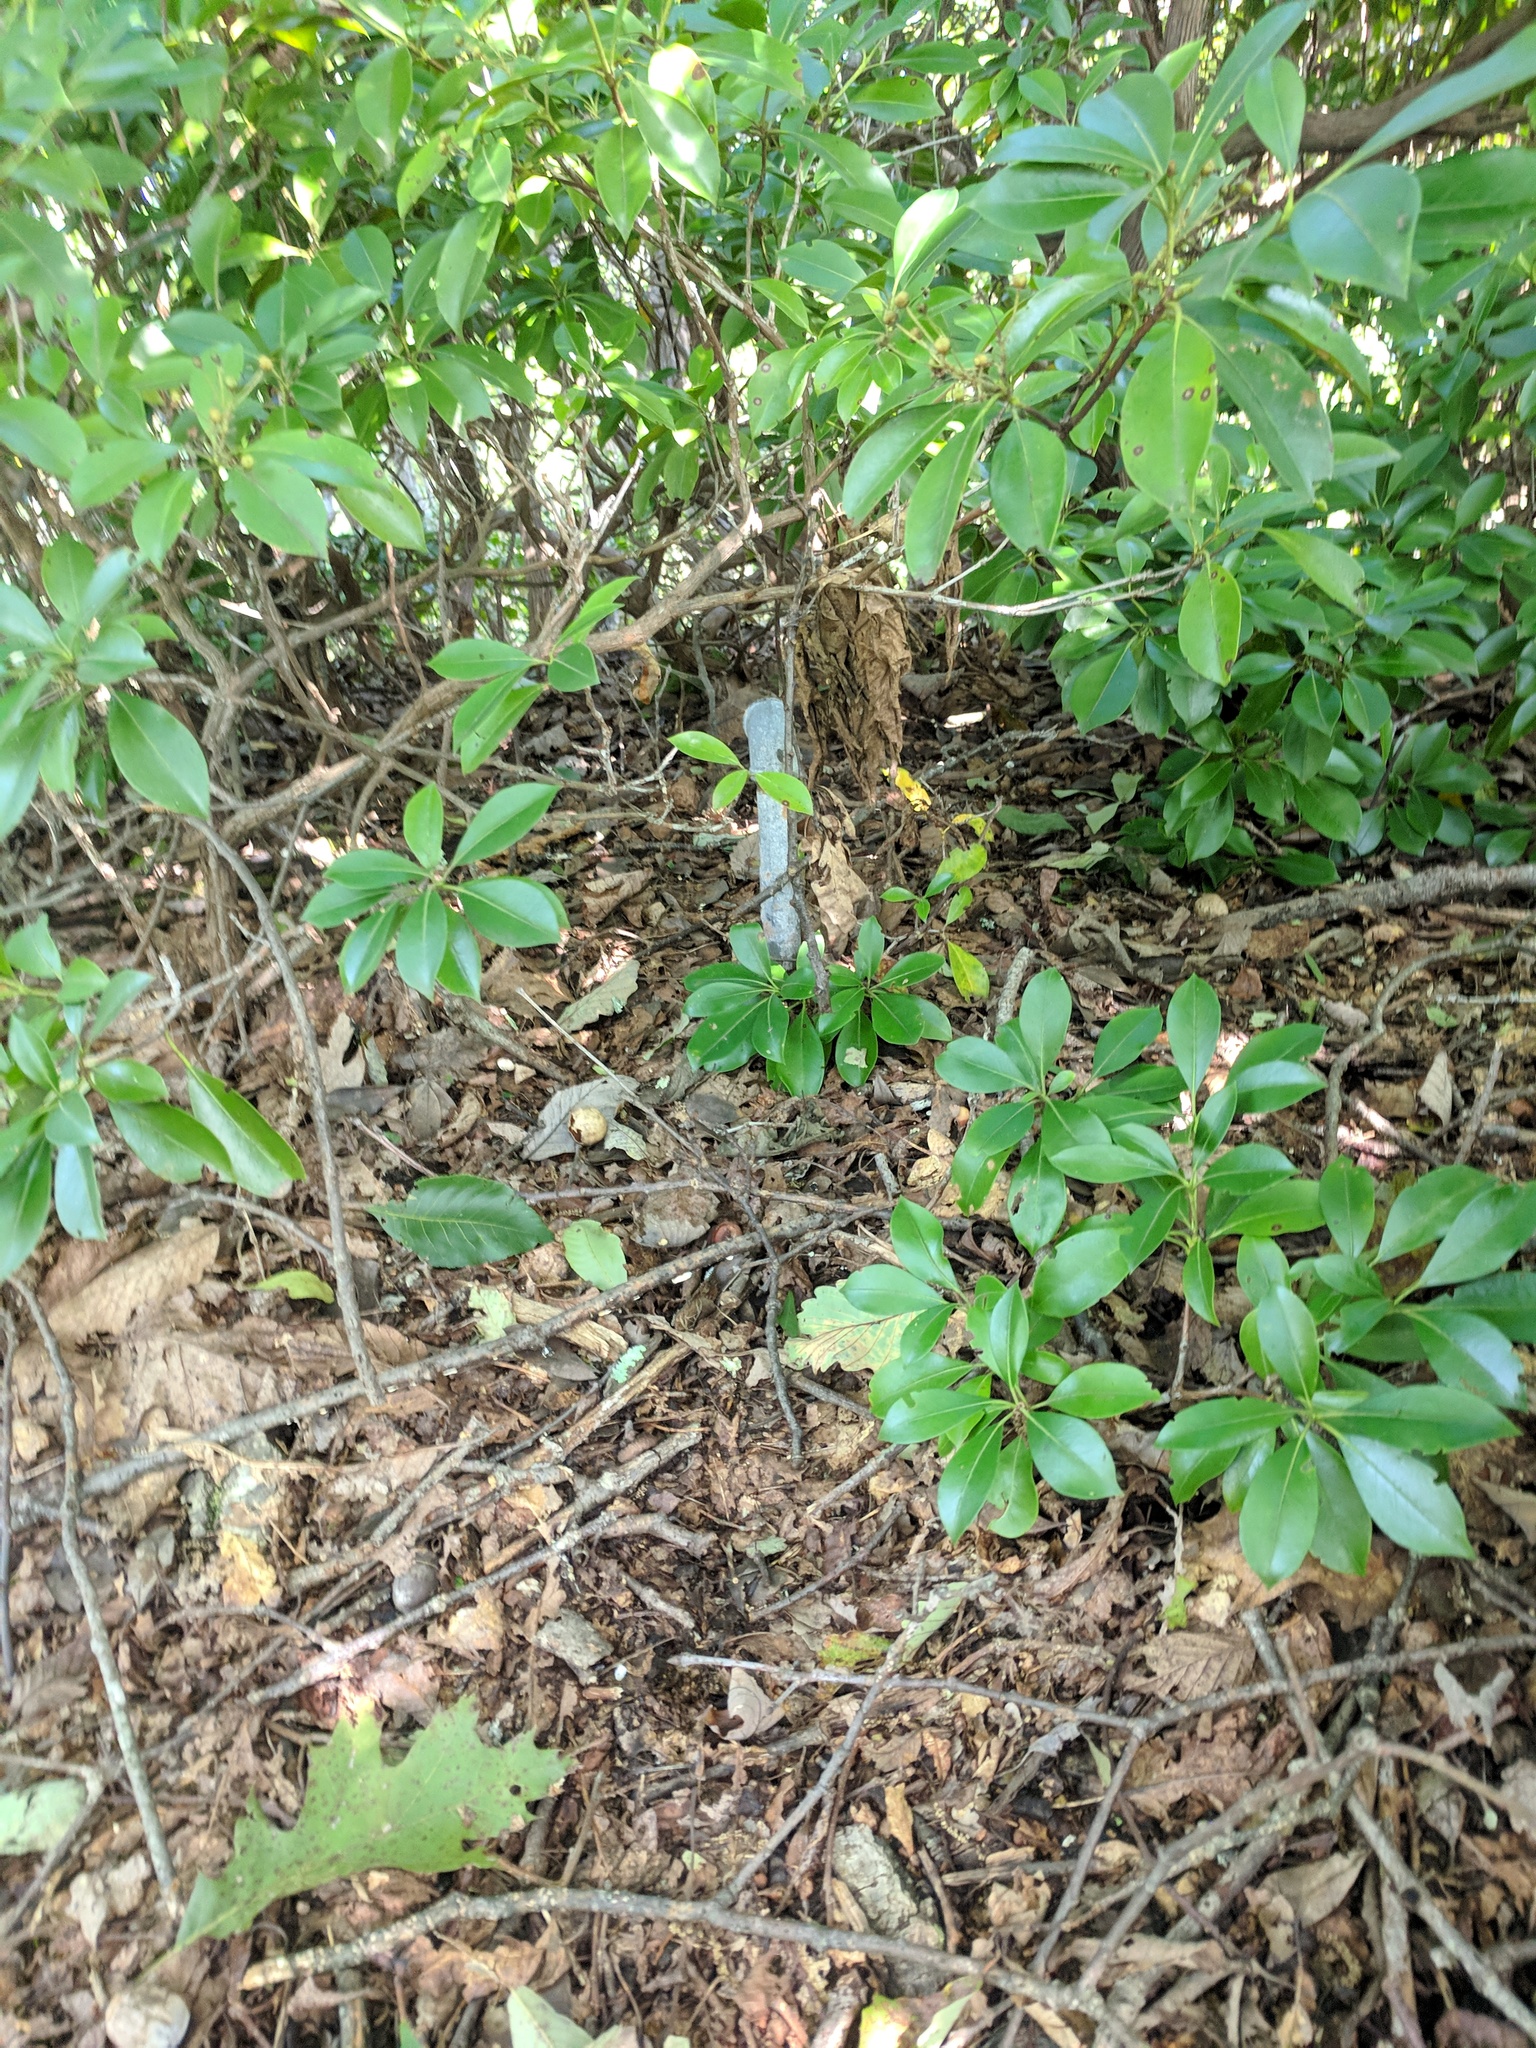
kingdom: Plantae
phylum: Tracheophyta
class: Magnoliopsida
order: Ericales
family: Ericaceae
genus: Kalmia
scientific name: Kalmia latifolia
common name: Mountain-laurel
